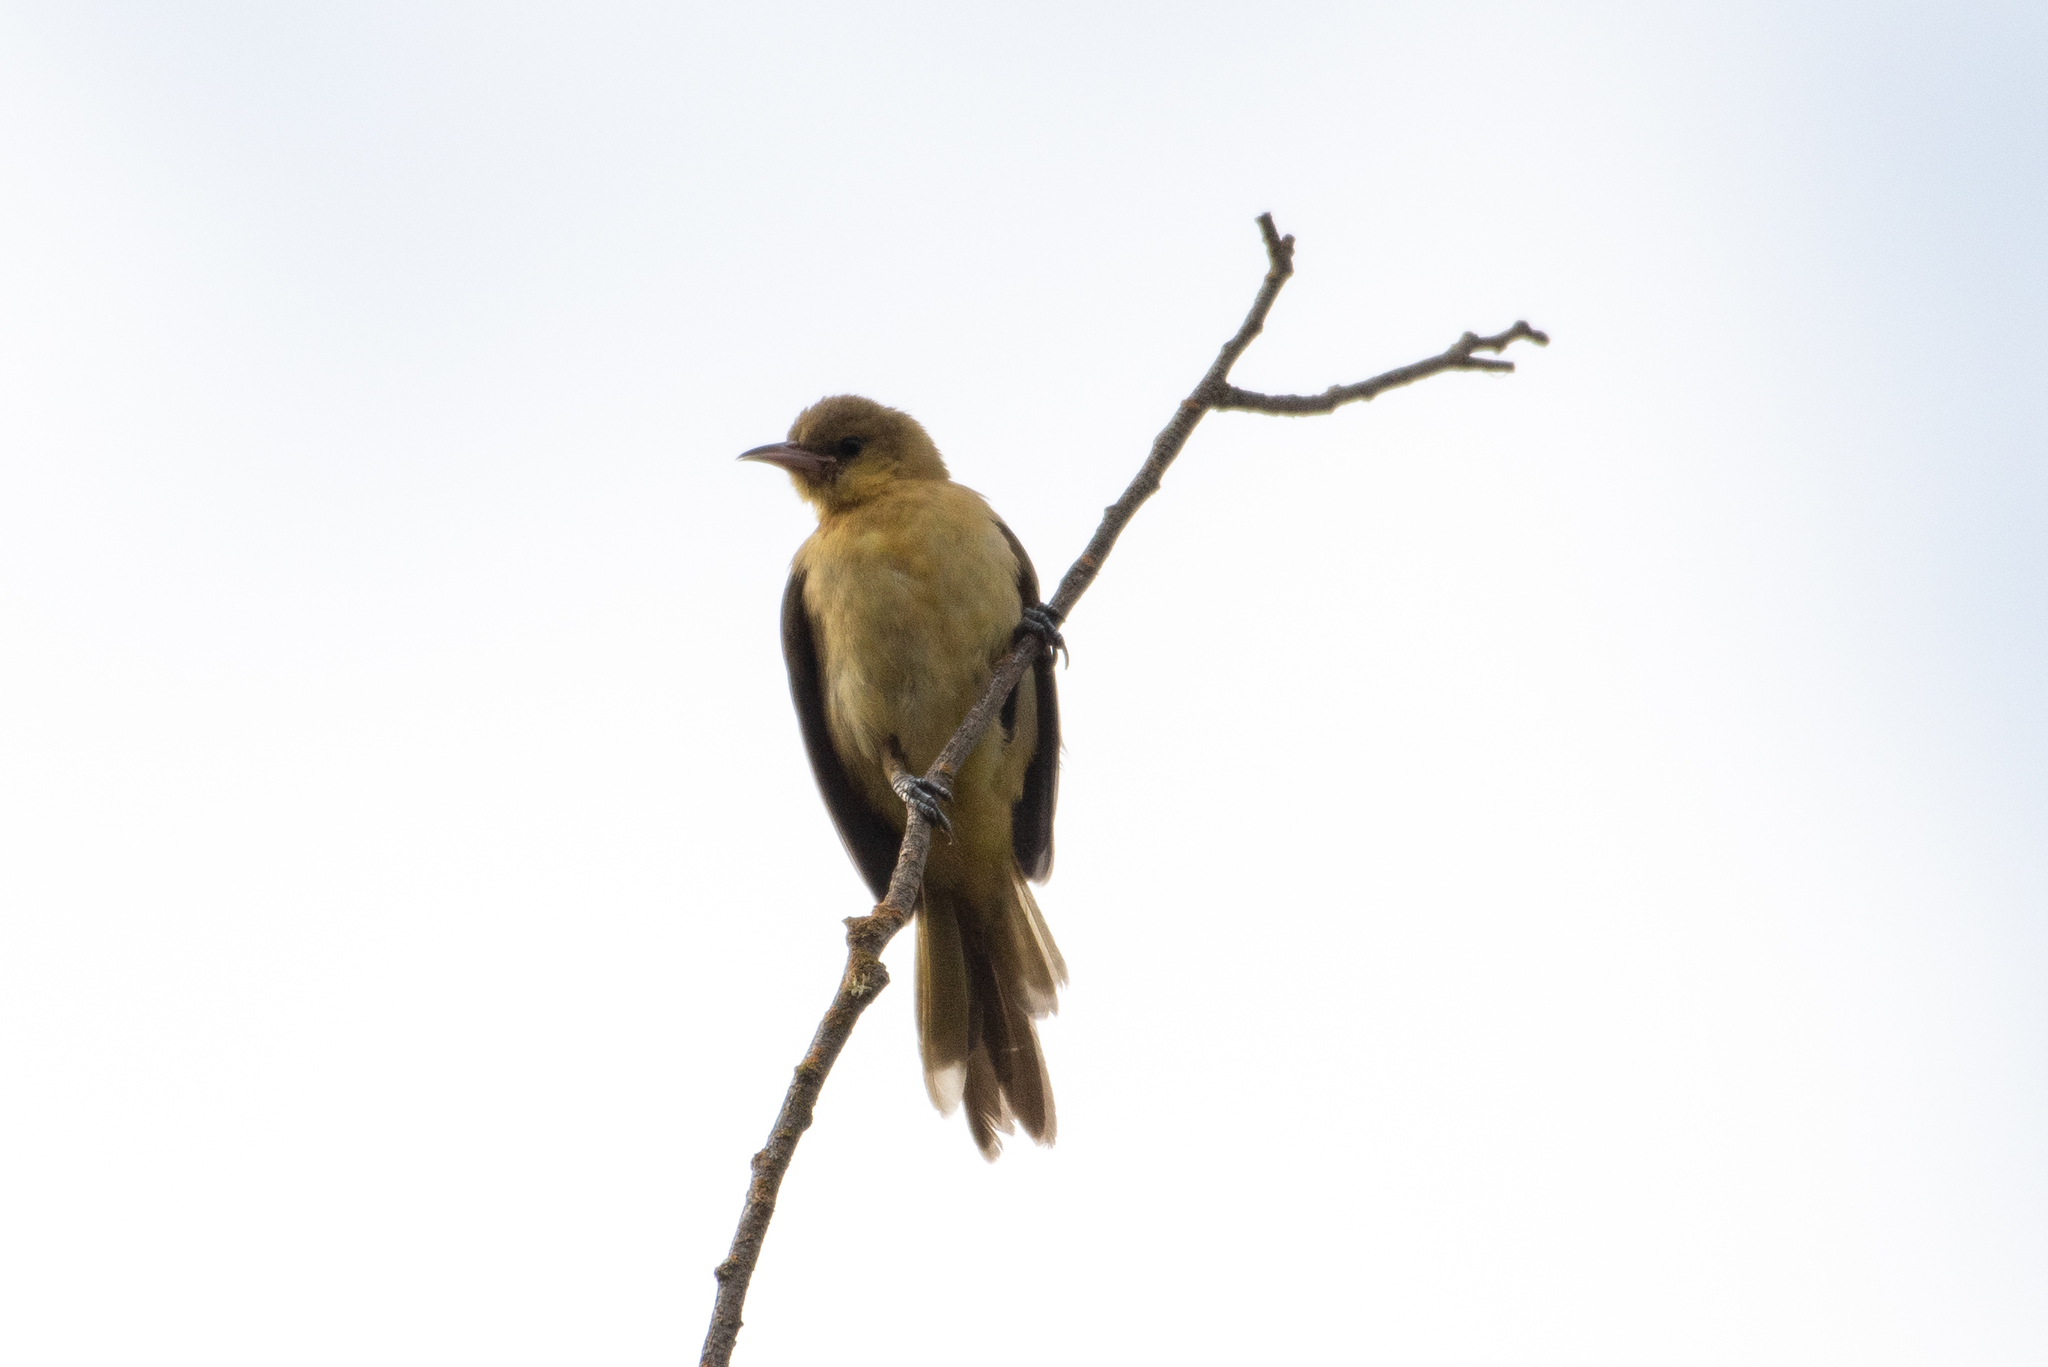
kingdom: Animalia
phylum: Chordata
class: Aves
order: Passeriformes
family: Icteridae
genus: Icterus
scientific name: Icterus cucullatus
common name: Hooded oriole
